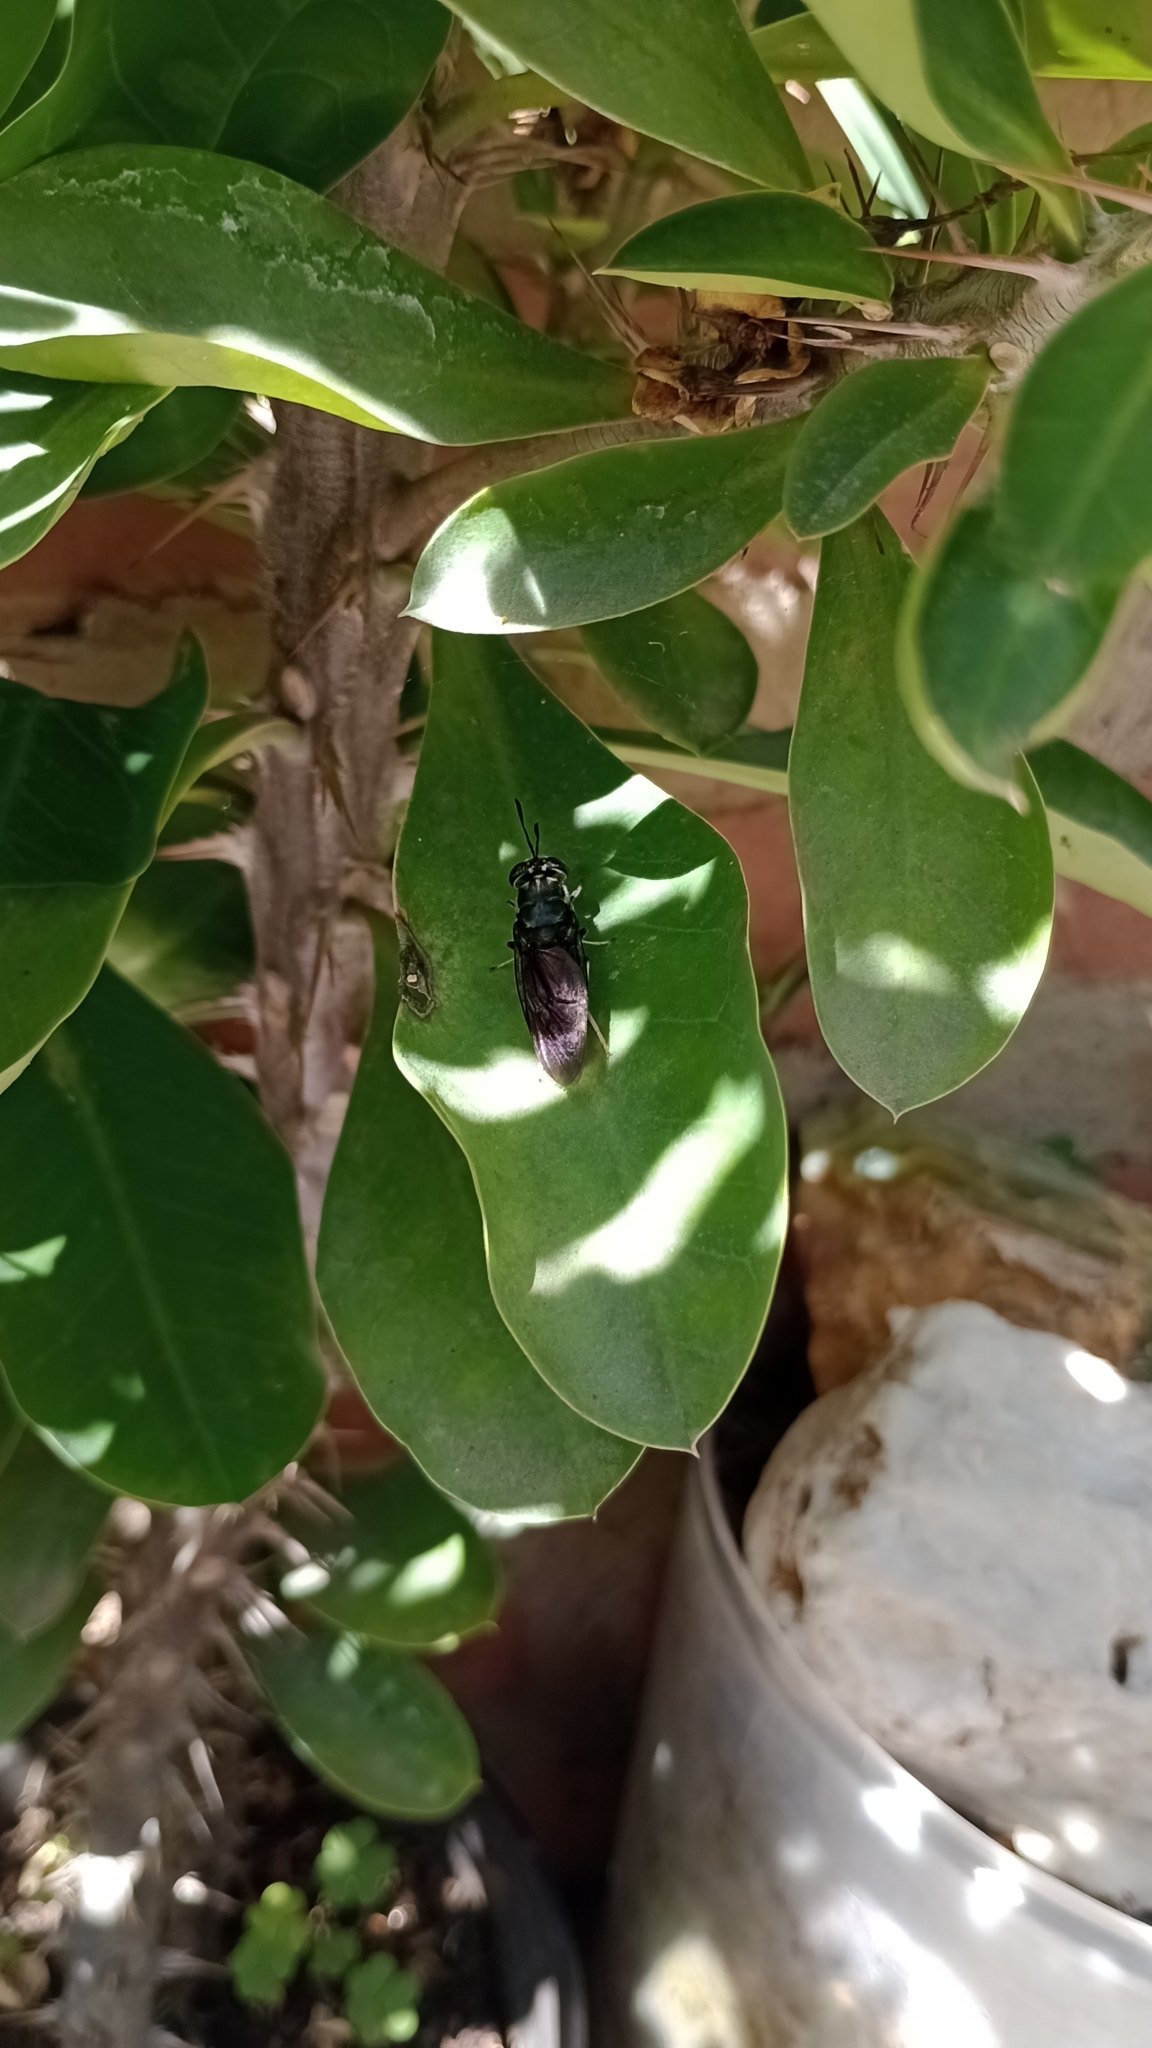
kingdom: Animalia
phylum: Arthropoda
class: Insecta
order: Diptera
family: Stratiomyidae
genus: Hermetia
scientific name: Hermetia illucens
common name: Black soldier fly
